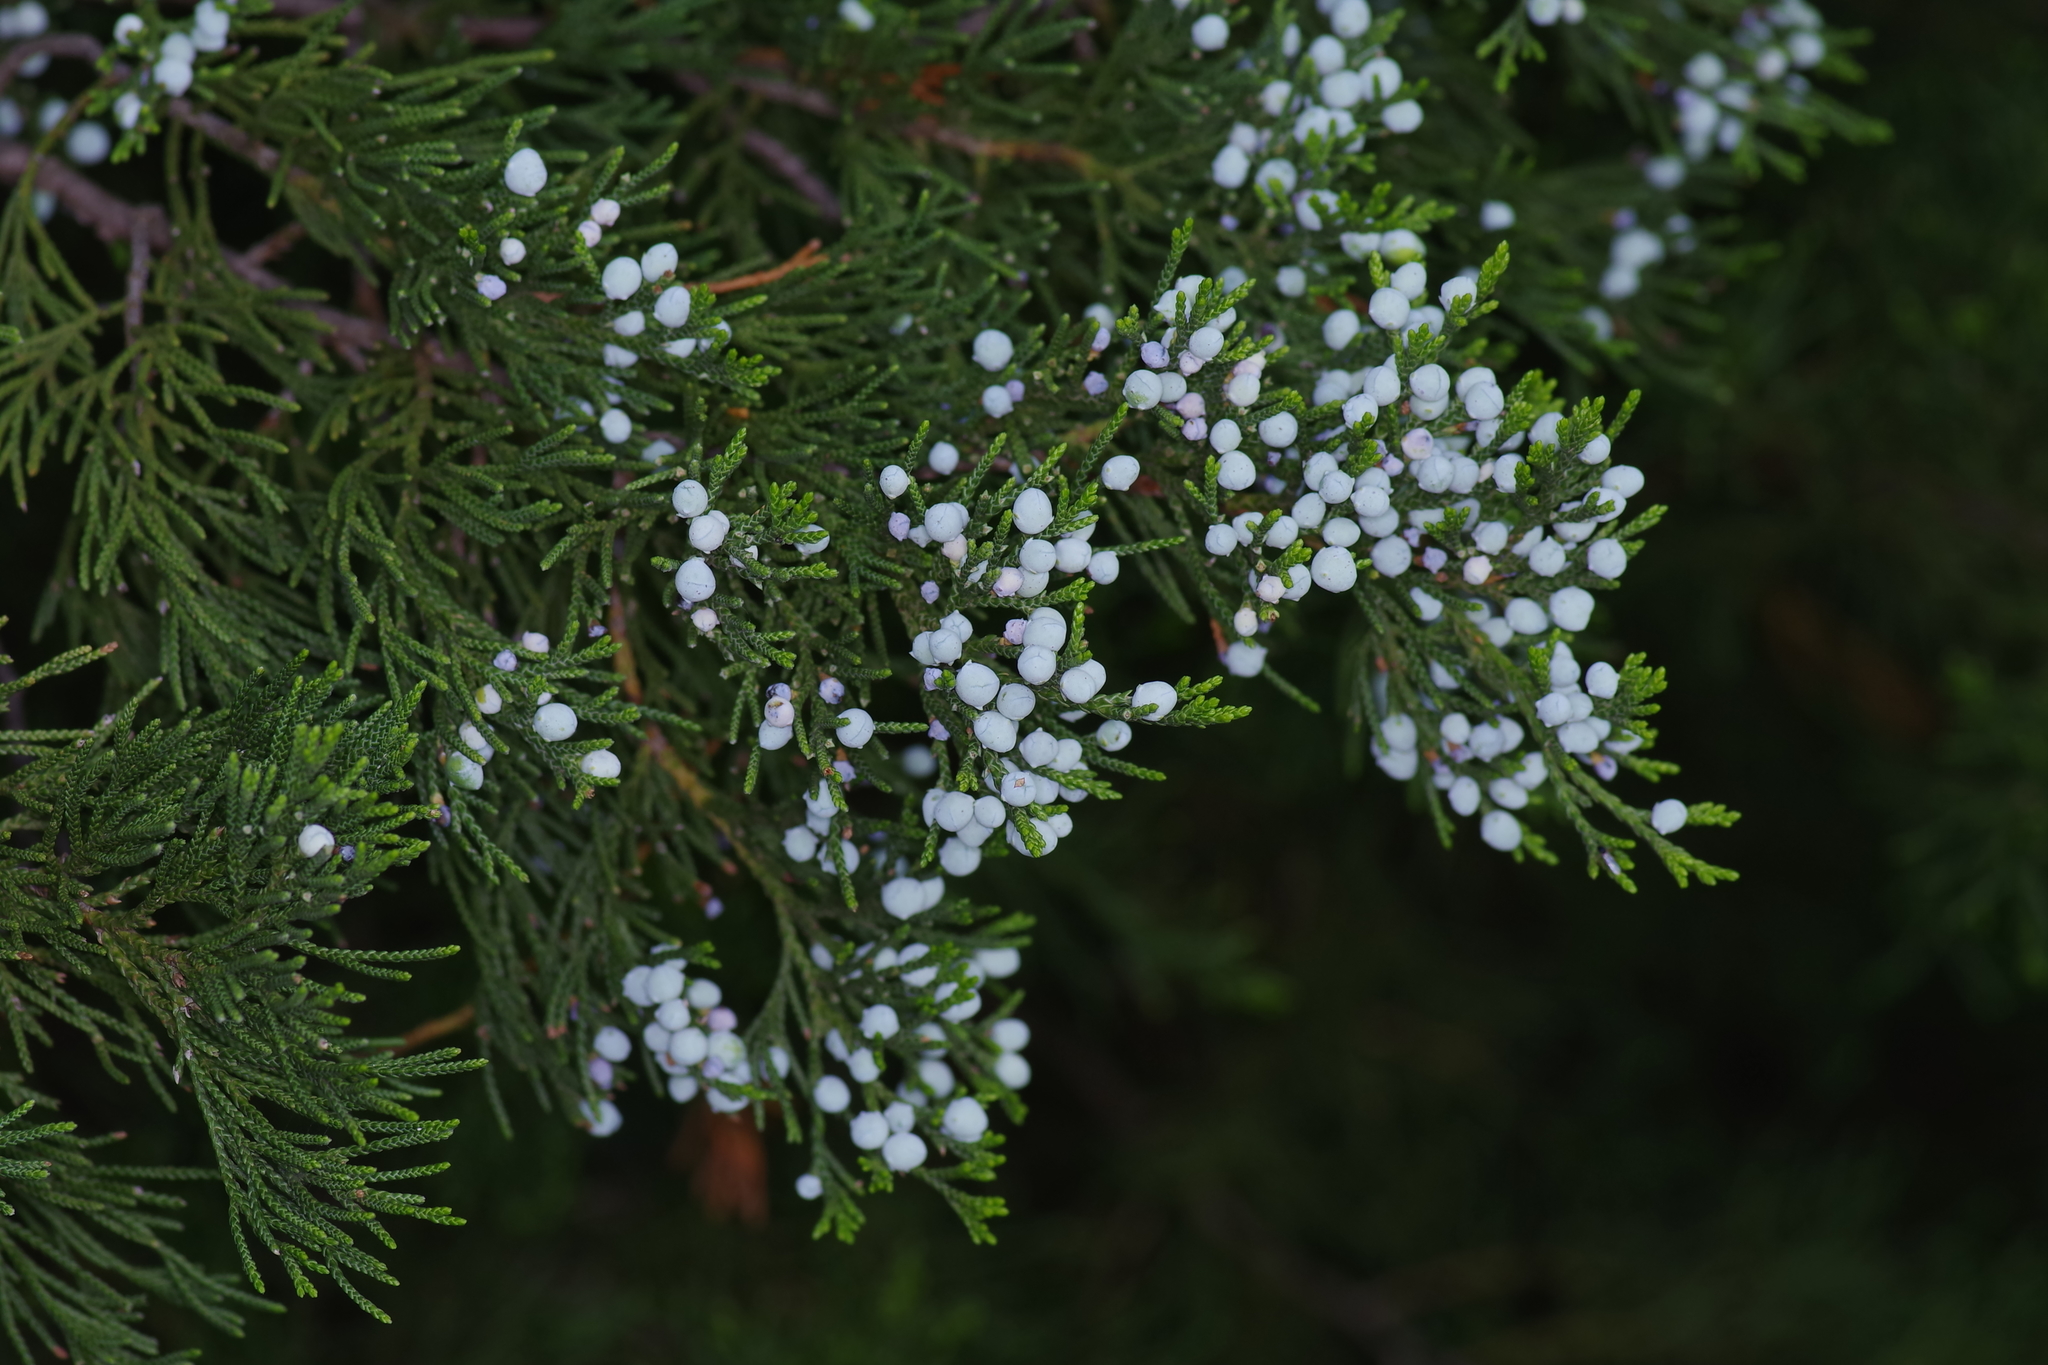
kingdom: Plantae
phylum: Tracheophyta
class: Pinopsida
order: Pinales
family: Cupressaceae
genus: Juniperus
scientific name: Juniperus ashei
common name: Mexican juniper
